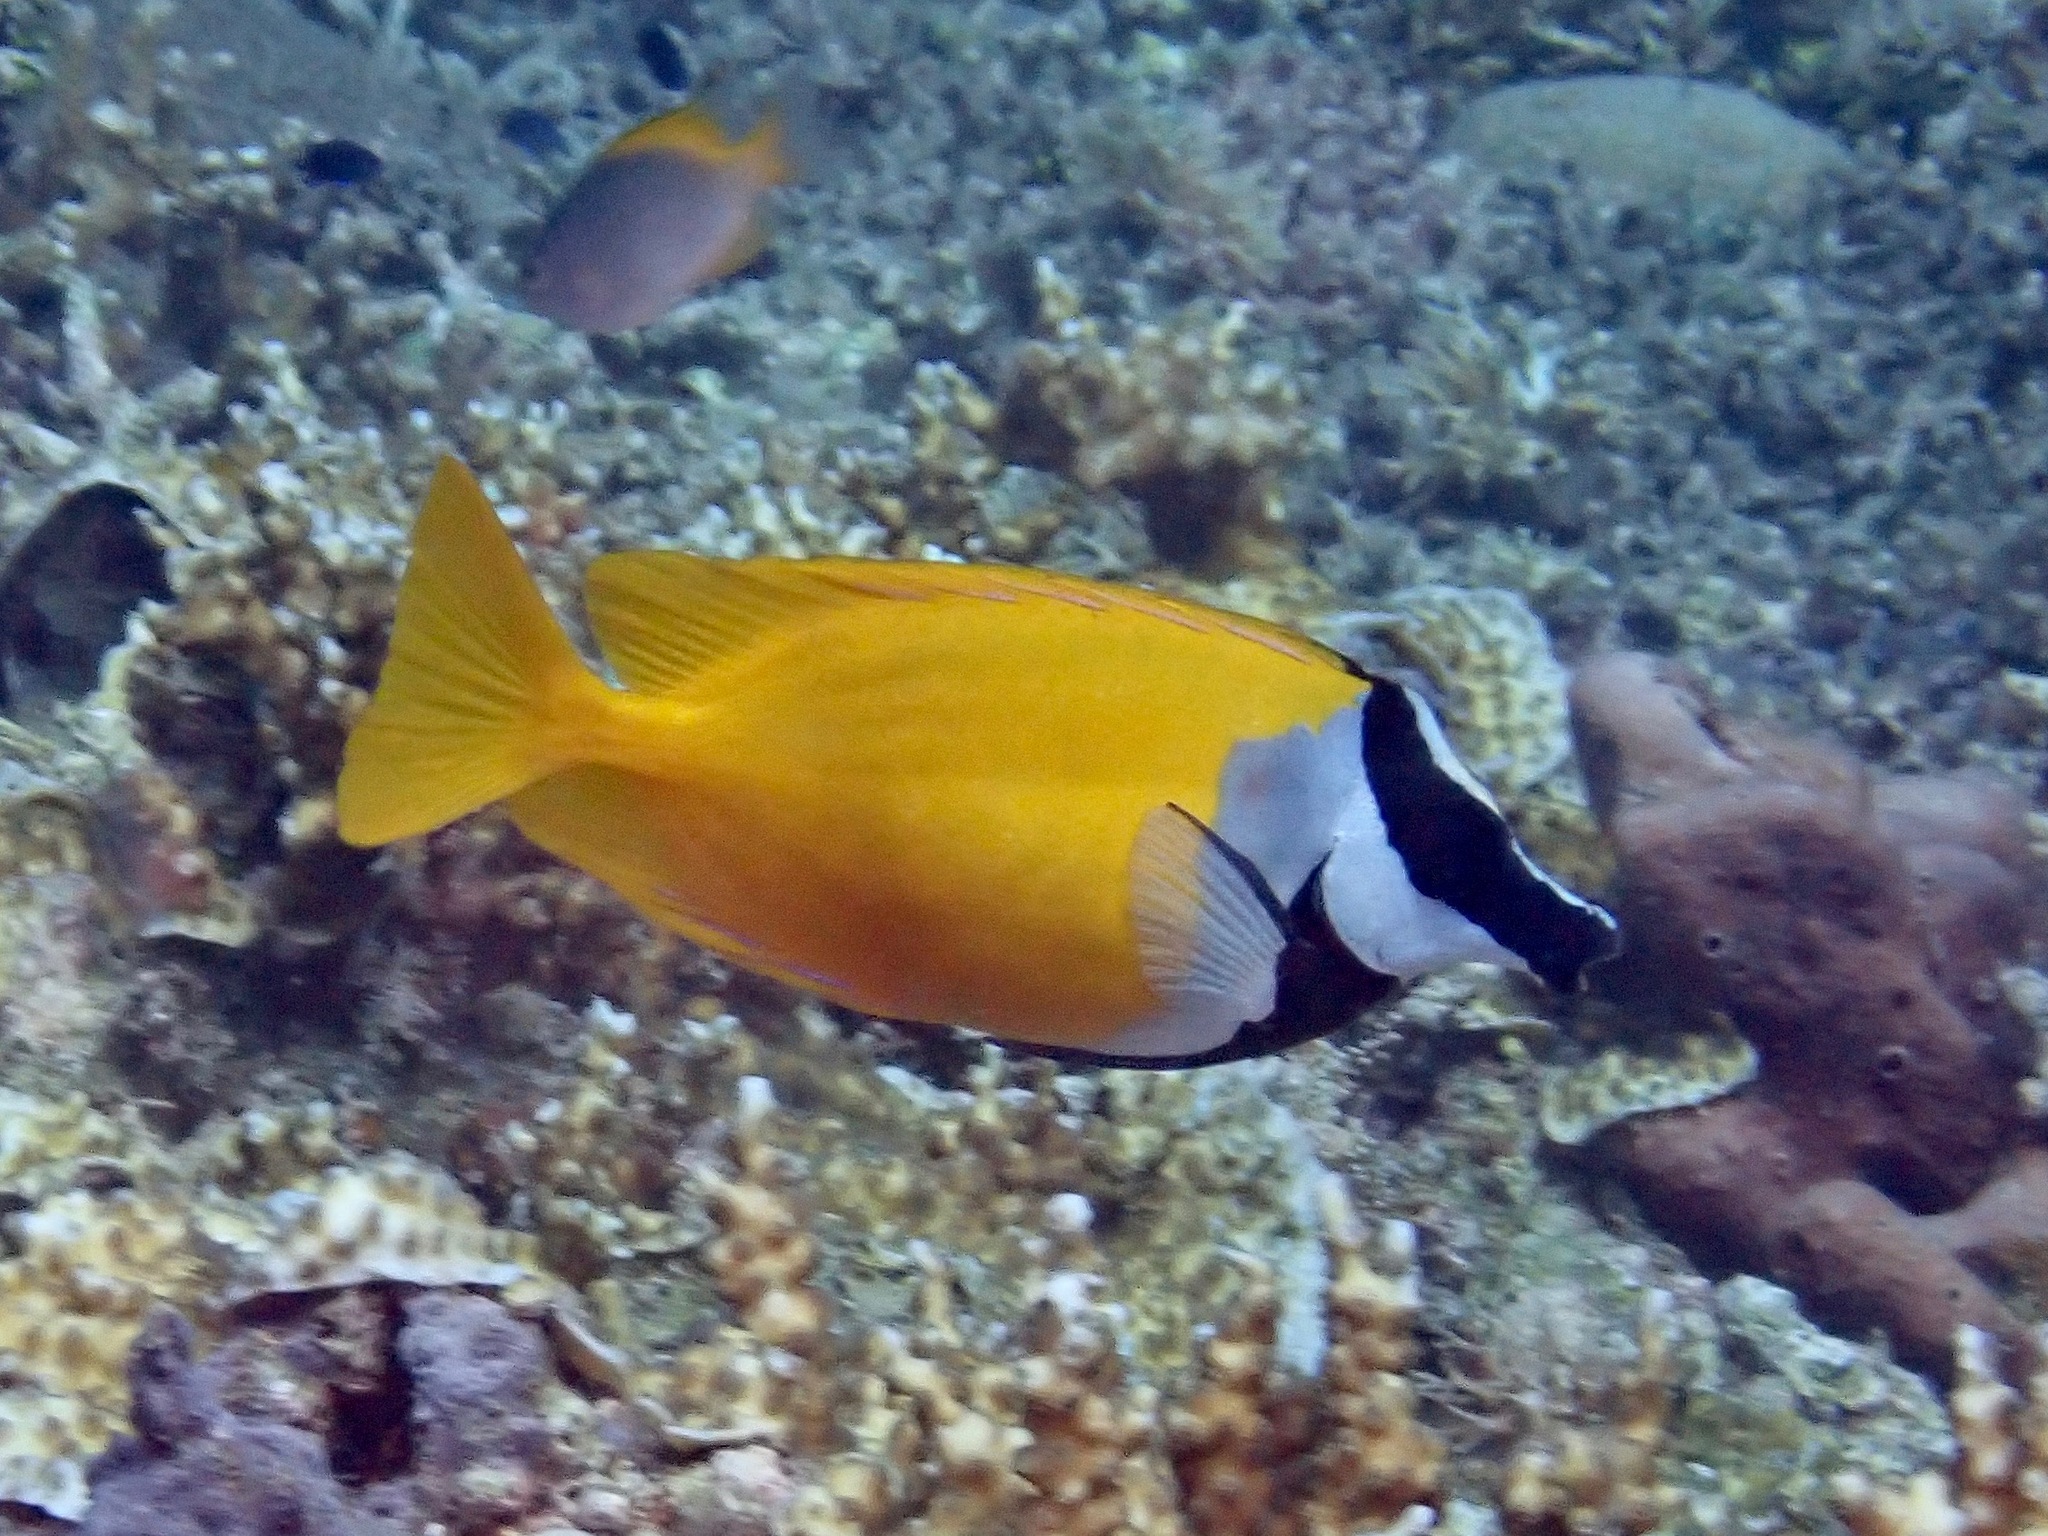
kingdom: Animalia
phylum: Chordata
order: Perciformes
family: Siganidae
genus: Siganus
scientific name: Siganus vulpinus
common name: Foxface
